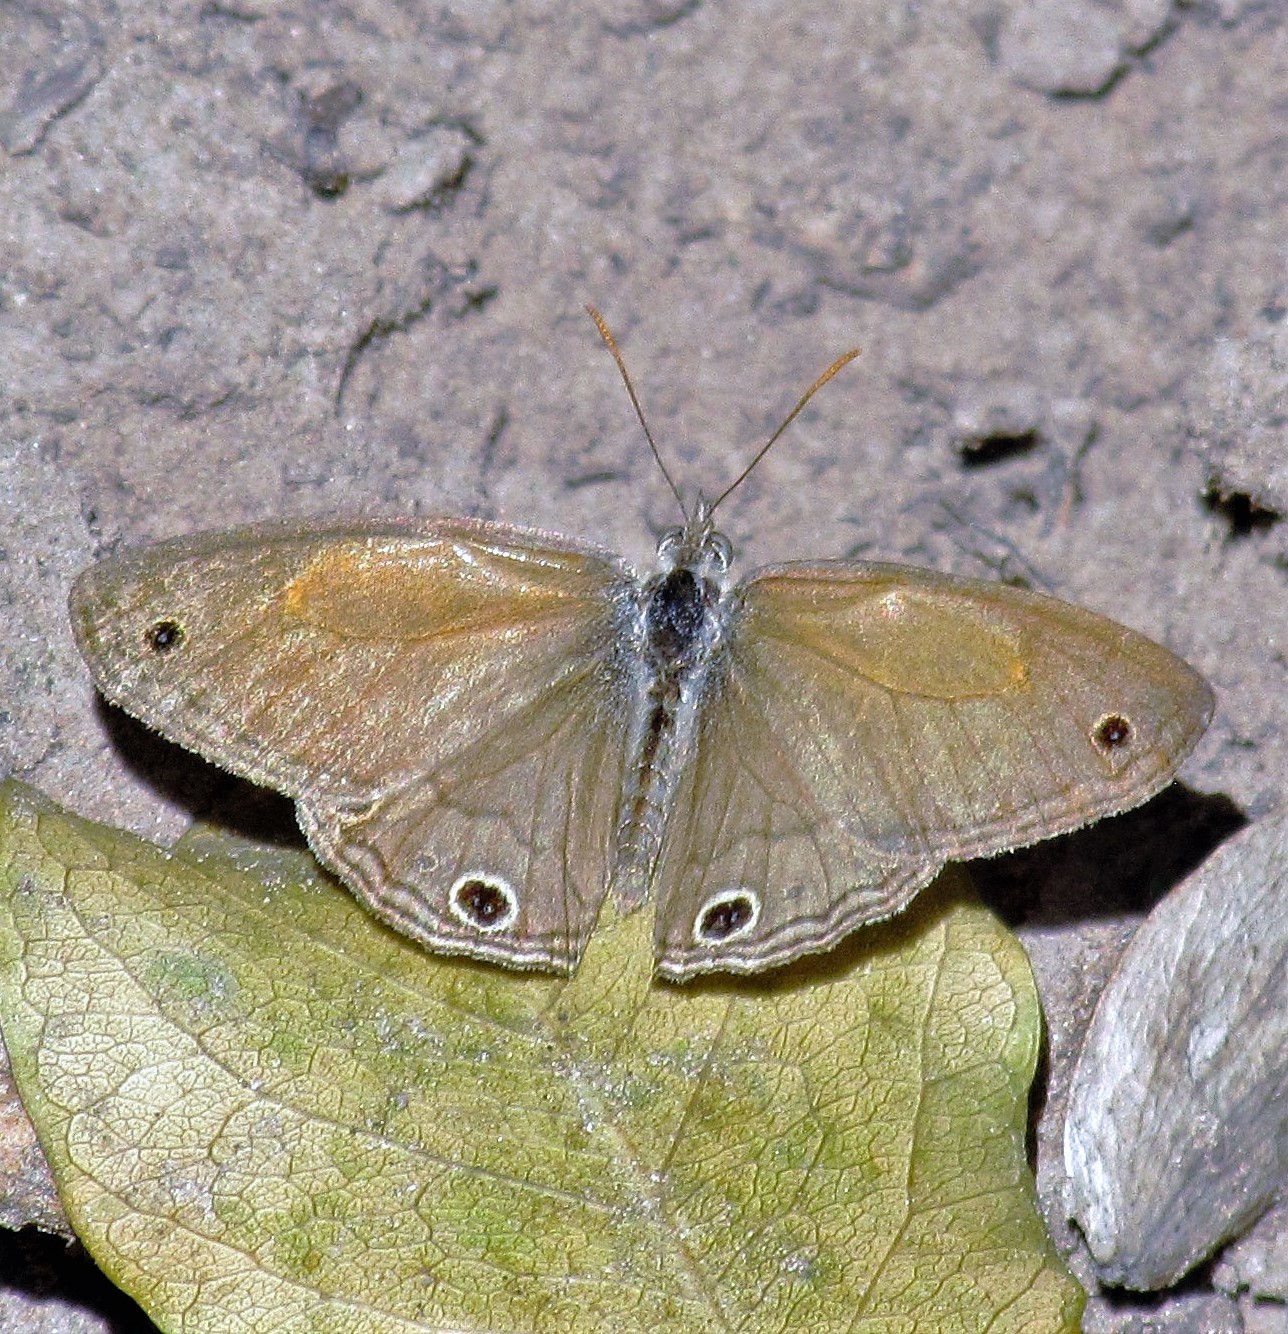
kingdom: Animalia
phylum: Arthropoda
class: Insecta
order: Lepidoptera
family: Nymphalidae
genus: Pharneuptychia
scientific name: Pharneuptychia phares
